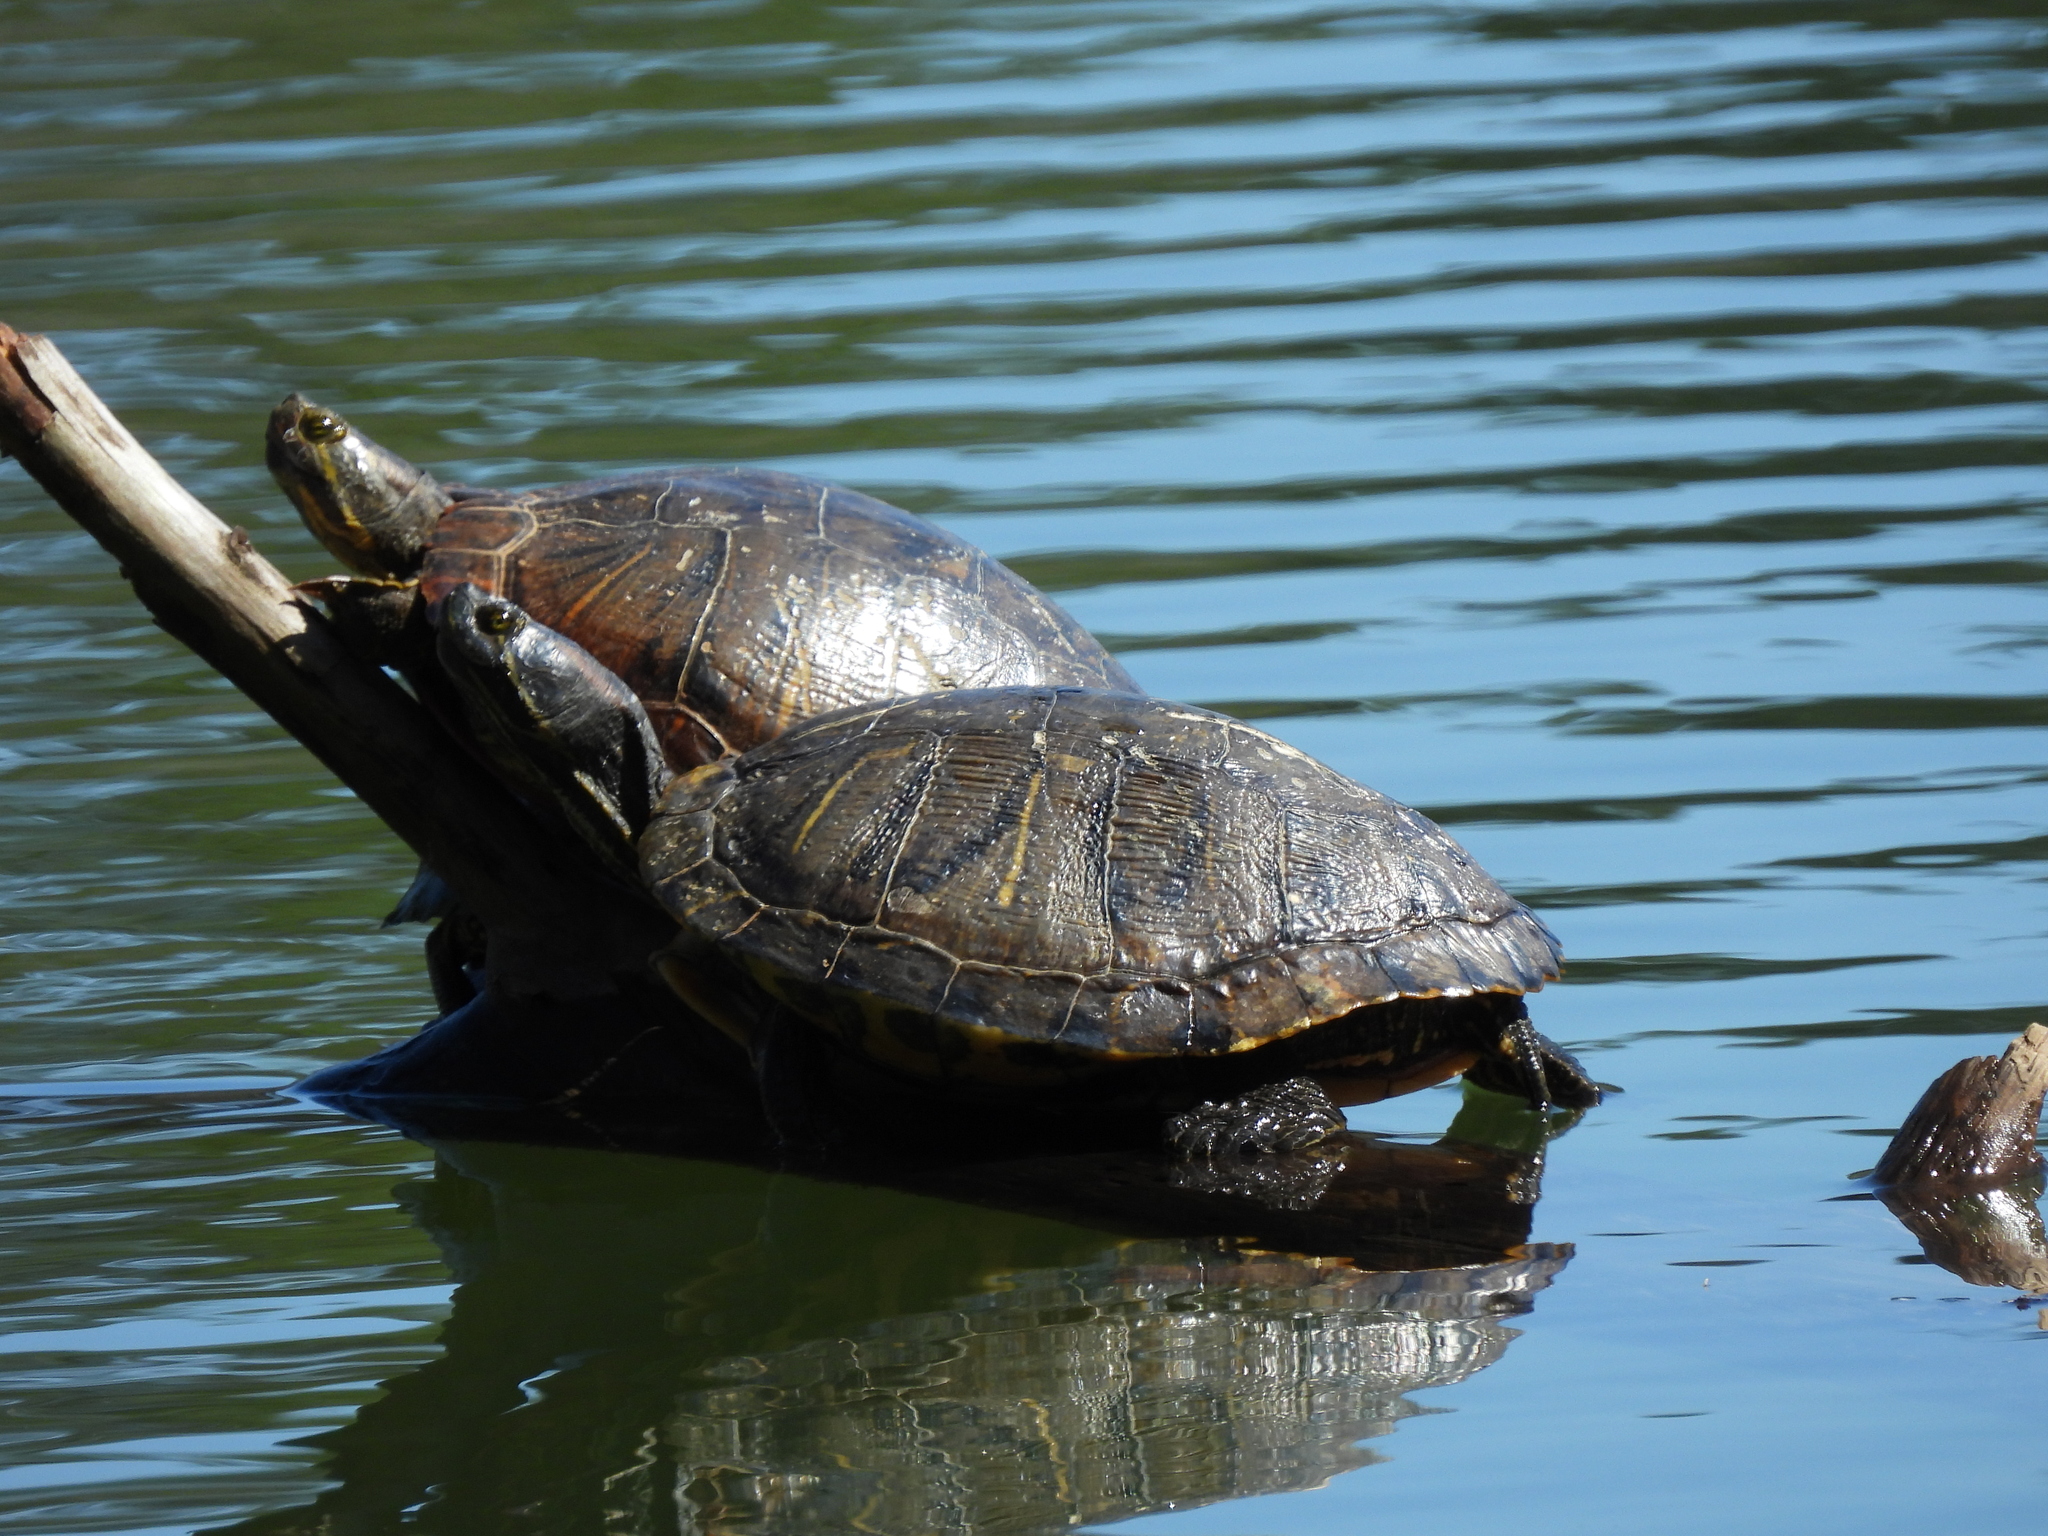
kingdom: Animalia
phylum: Chordata
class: Testudines
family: Emydidae
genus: Trachemys
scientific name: Trachemys scripta
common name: Slider
